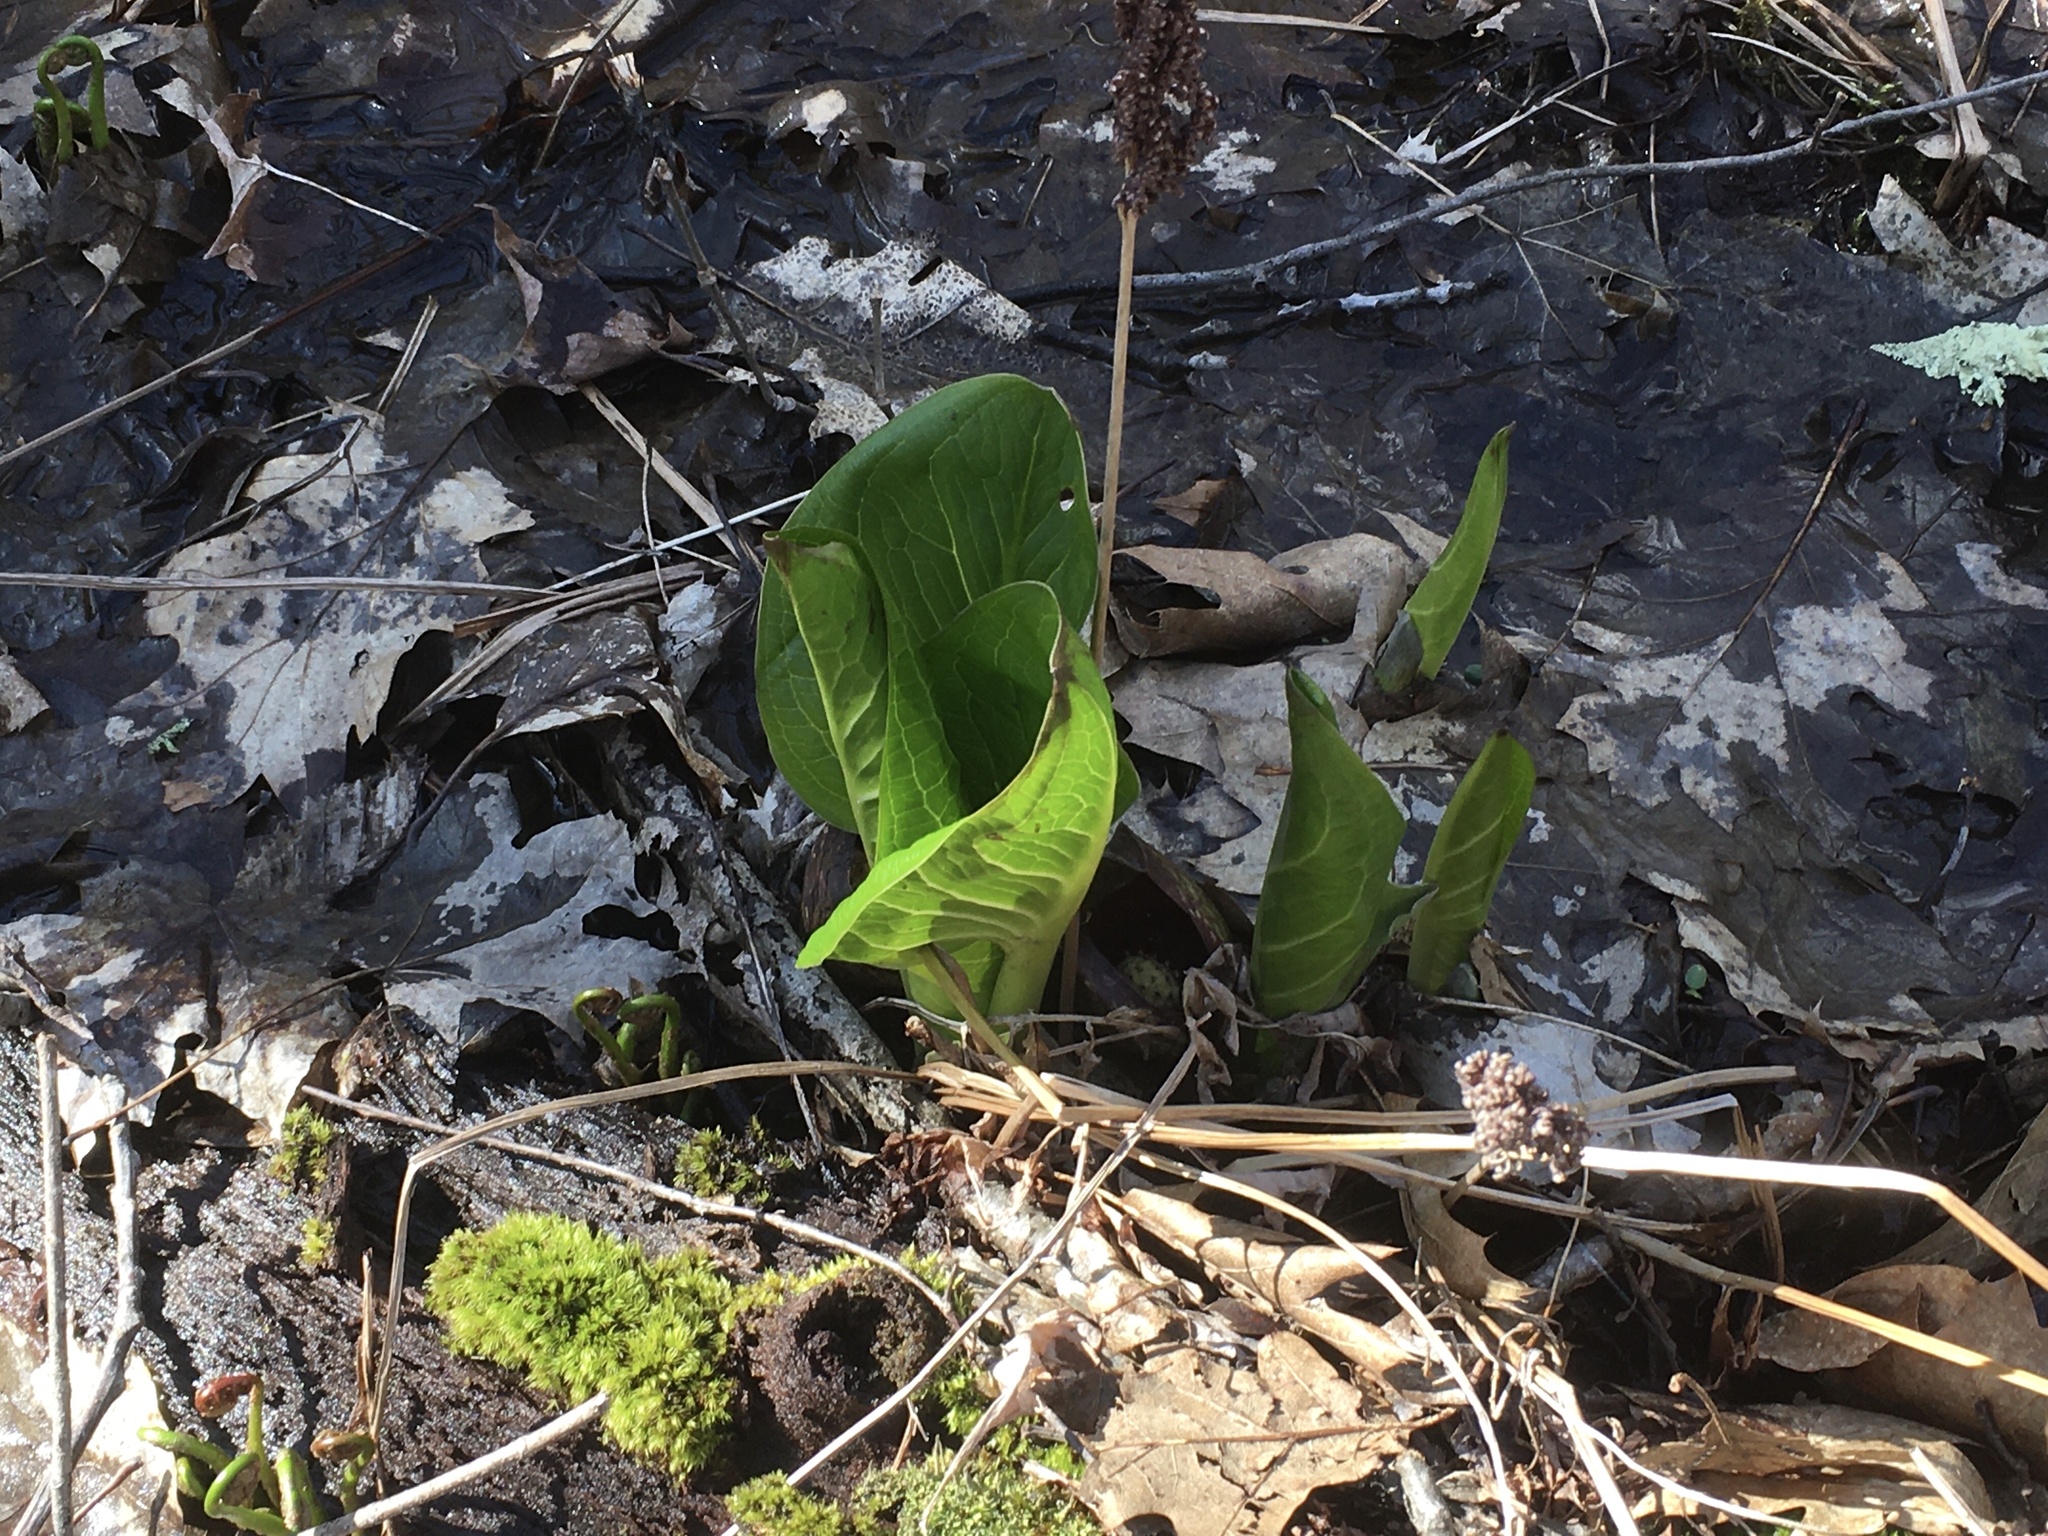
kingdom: Plantae
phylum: Tracheophyta
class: Liliopsida
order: Alismatales
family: Araceae
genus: Symplocarpus
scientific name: Symplocarpus foetidus
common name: Eastern skunk cabbage
